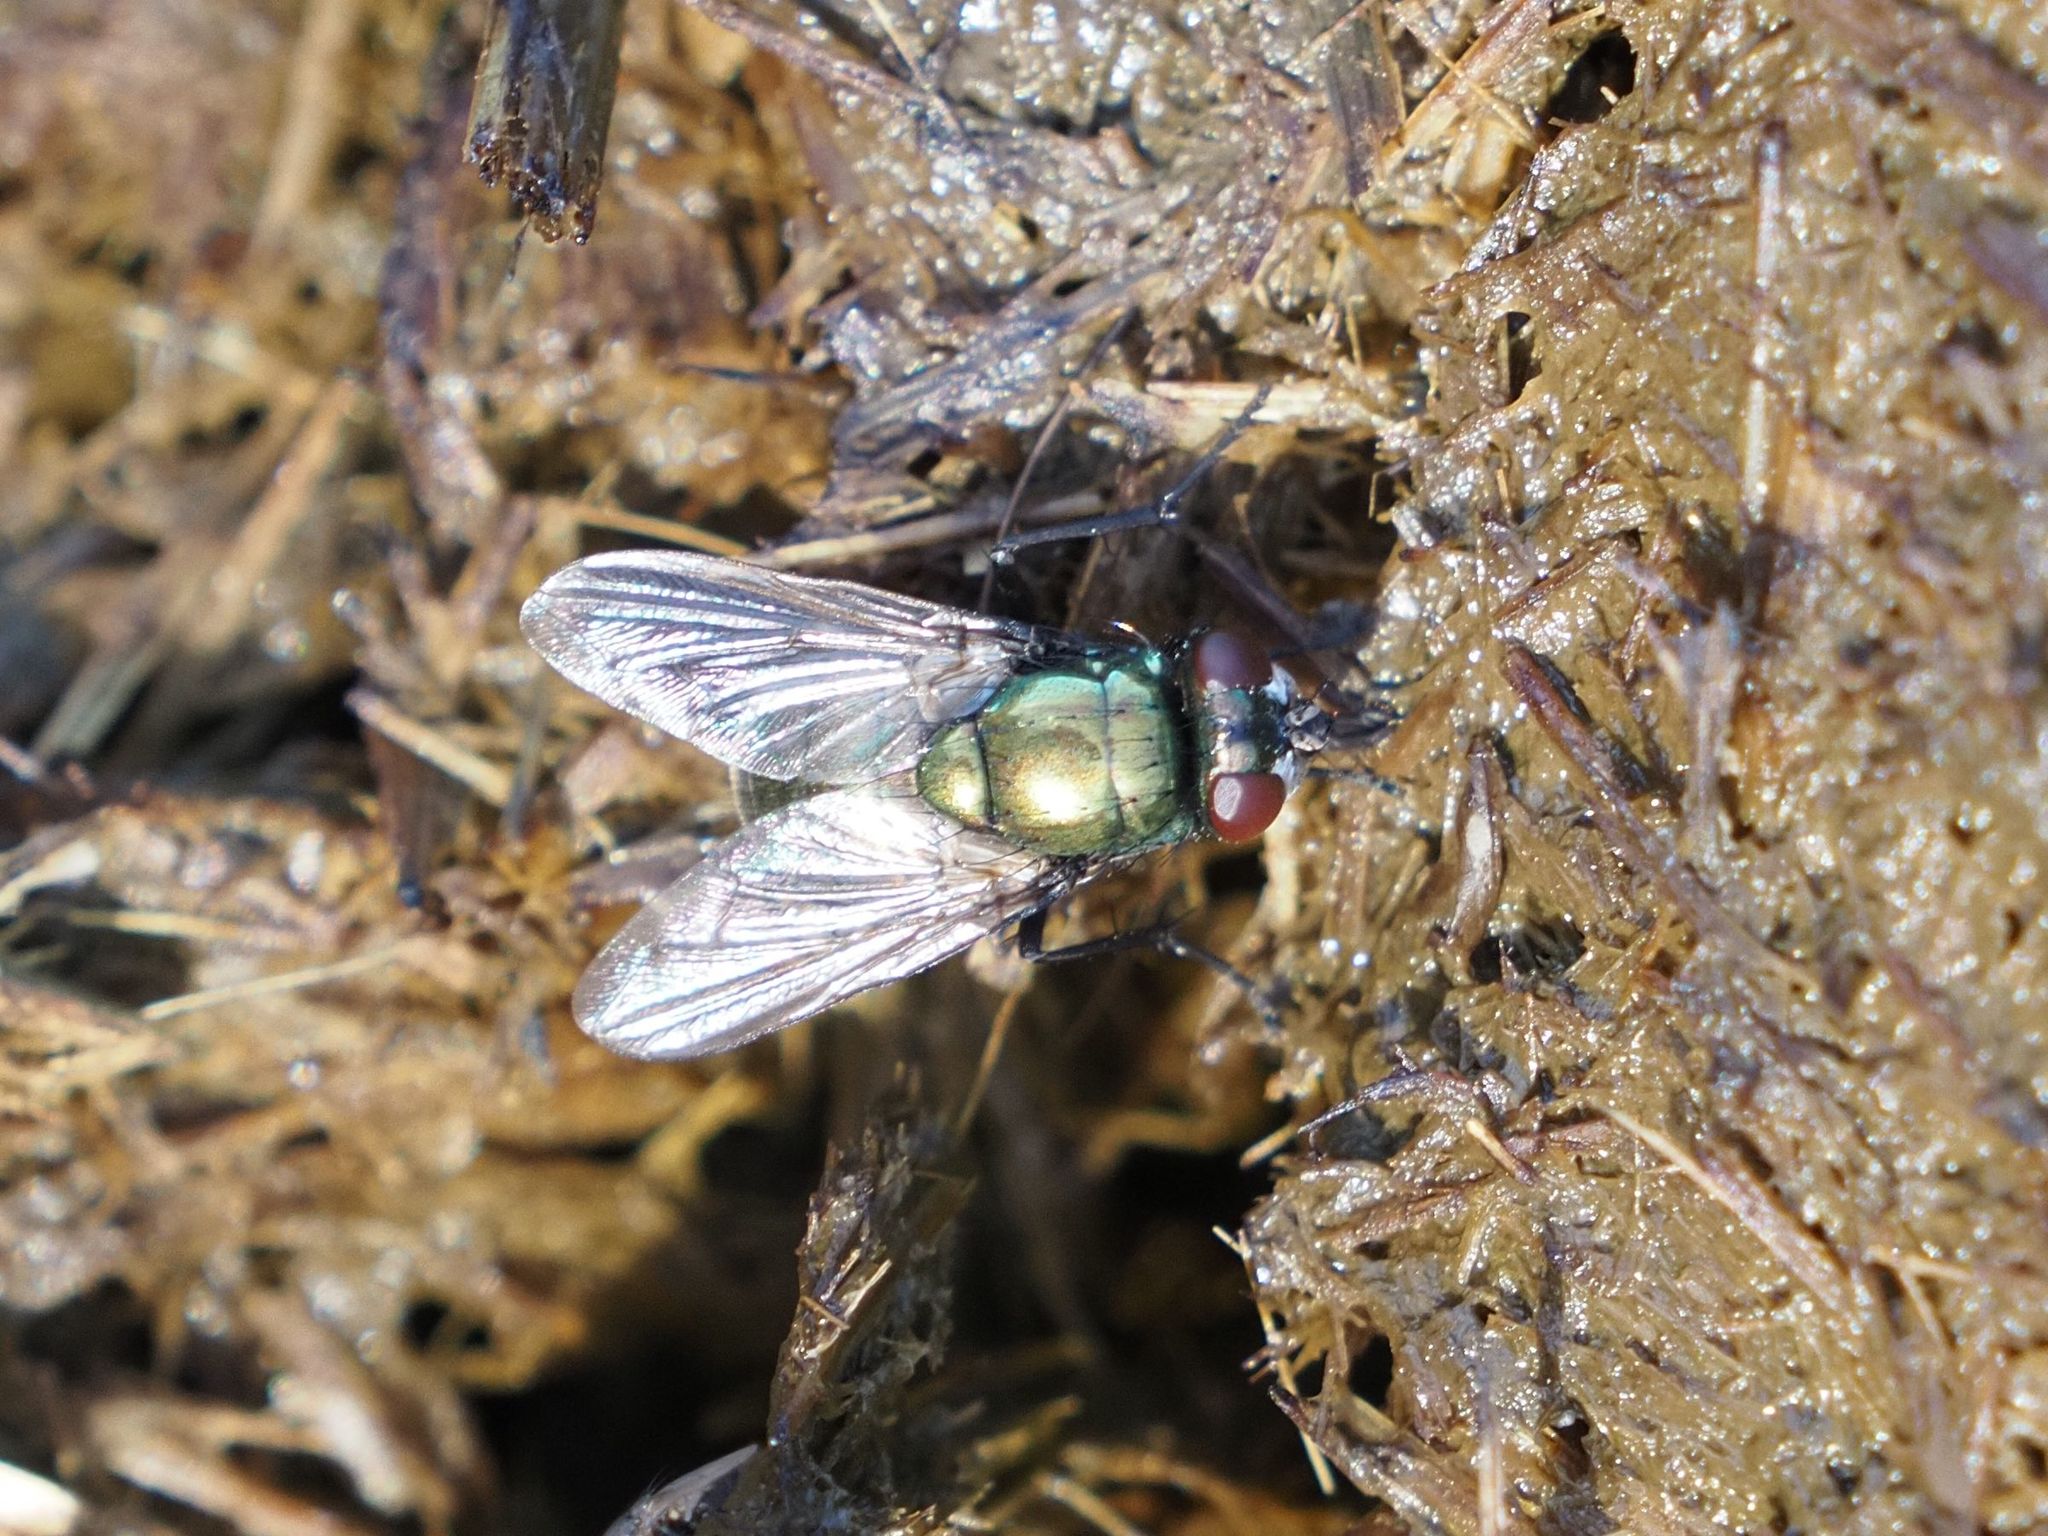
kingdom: Animalia
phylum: Arthropoda
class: Insecta
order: Diptera
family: Muscidae
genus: Neomyia
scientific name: Neomyia cornicina
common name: House fly
